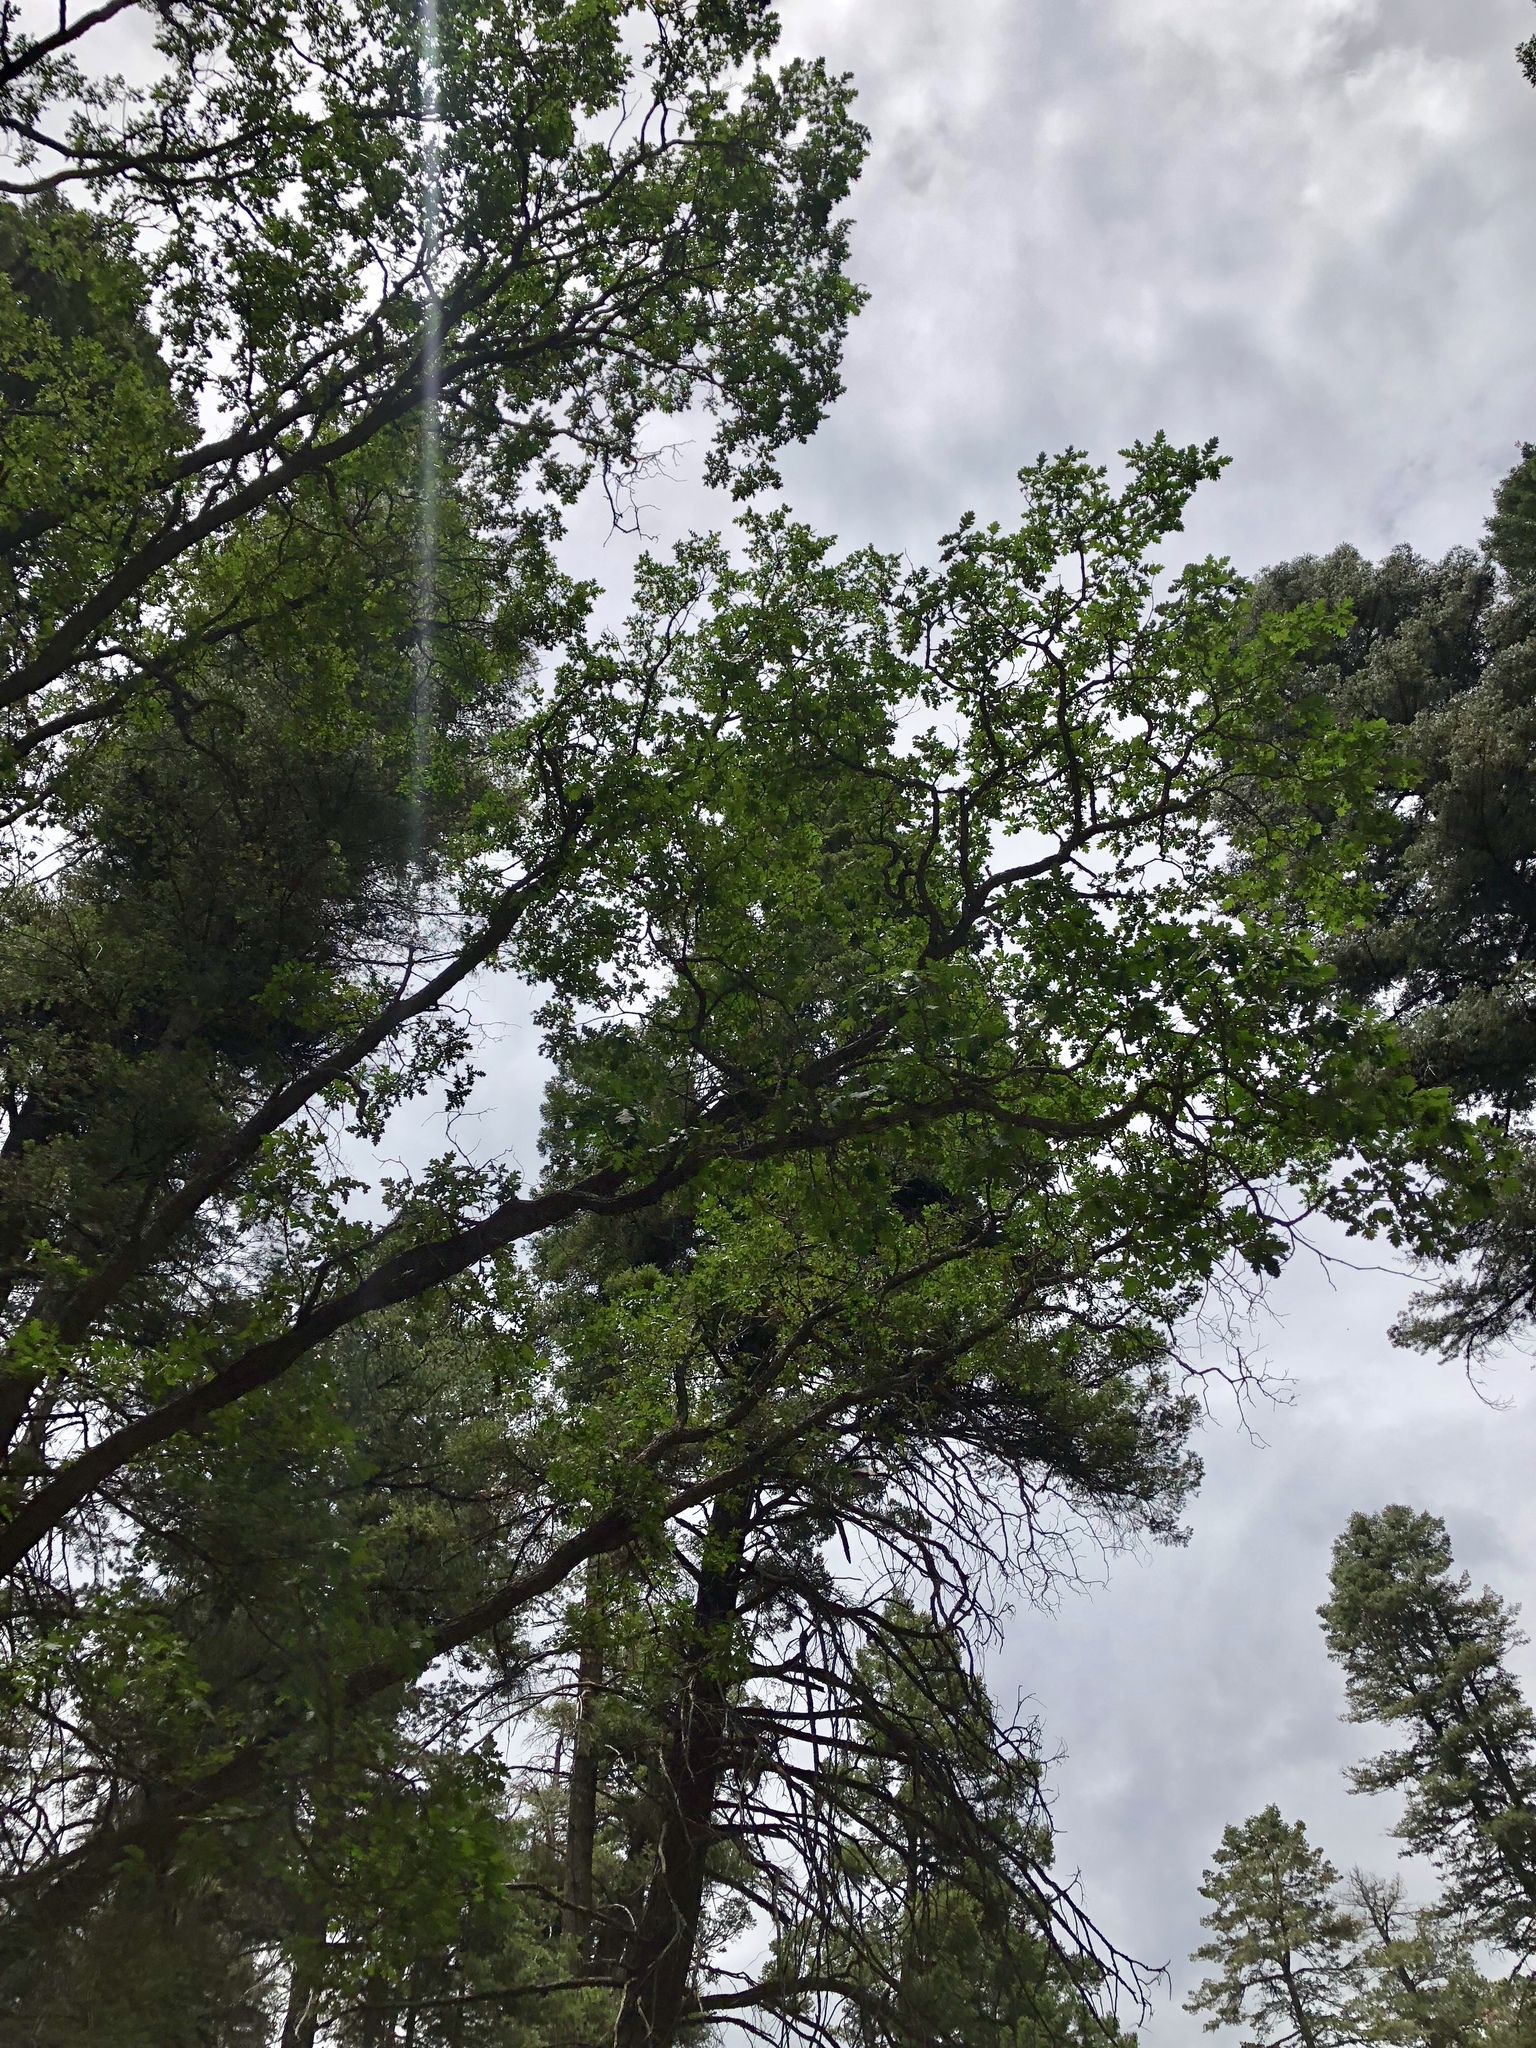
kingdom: Plantae
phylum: Tracheophyta
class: Magnoliopsida
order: Fagales
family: Fagaceae
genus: Quercus
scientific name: Quercus gambelii
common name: Gambel oak
